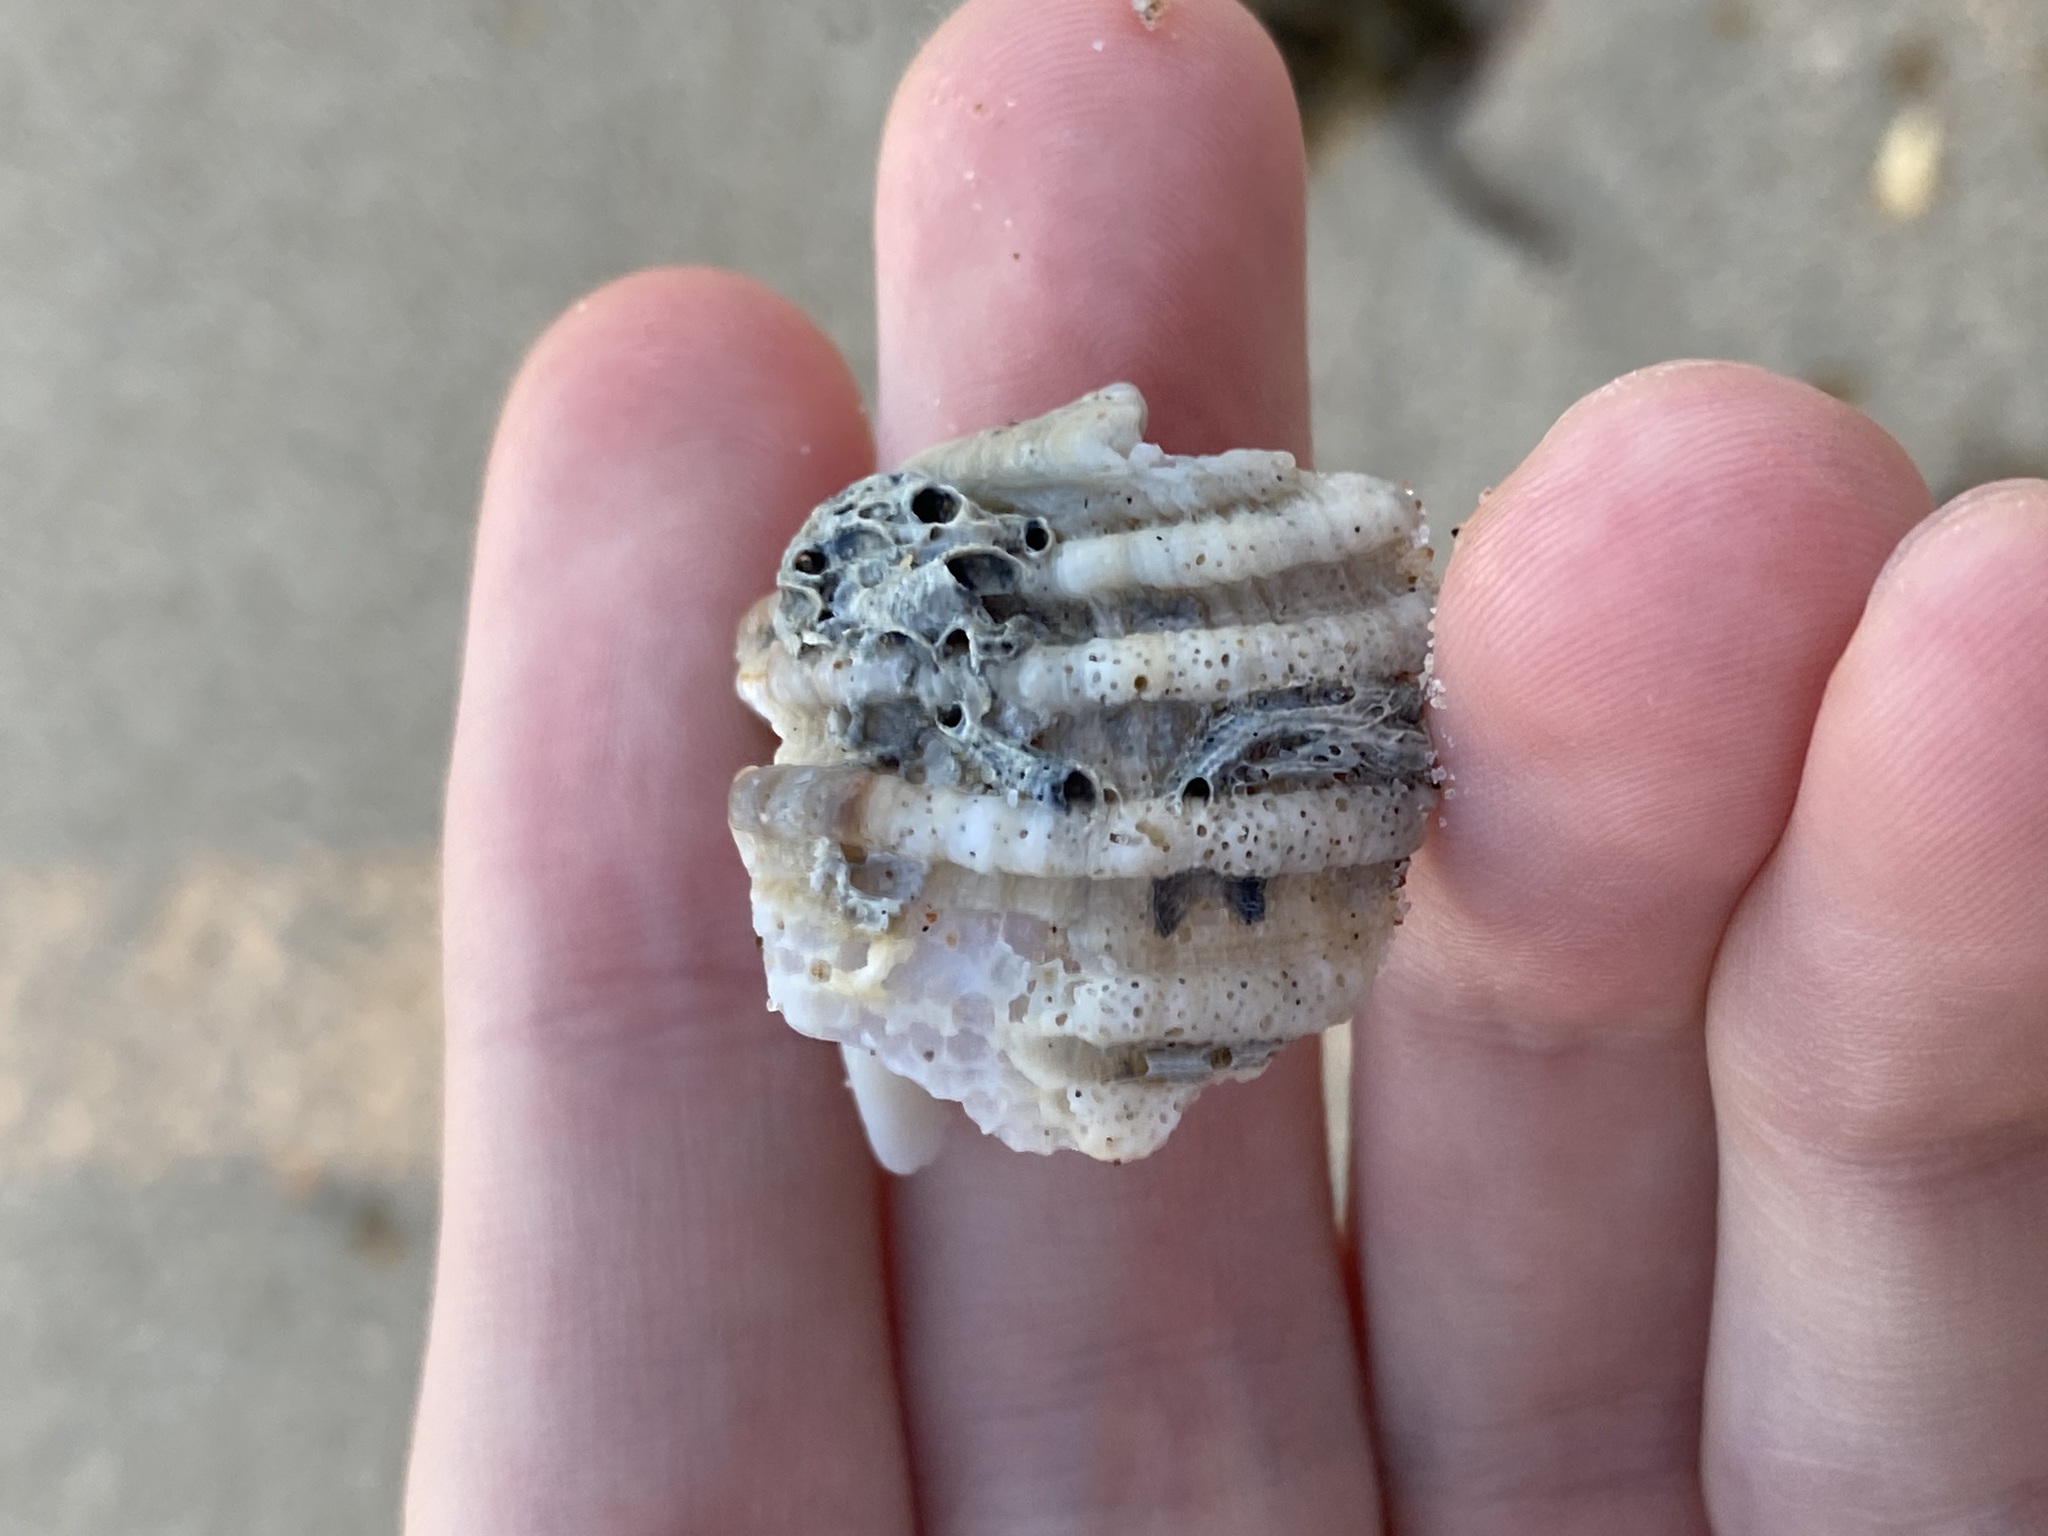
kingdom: Animalia
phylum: Mollusca
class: Gastropoda
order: Neogastropoda
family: Muricidae
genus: Dicathais
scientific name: Dicathais orbita
